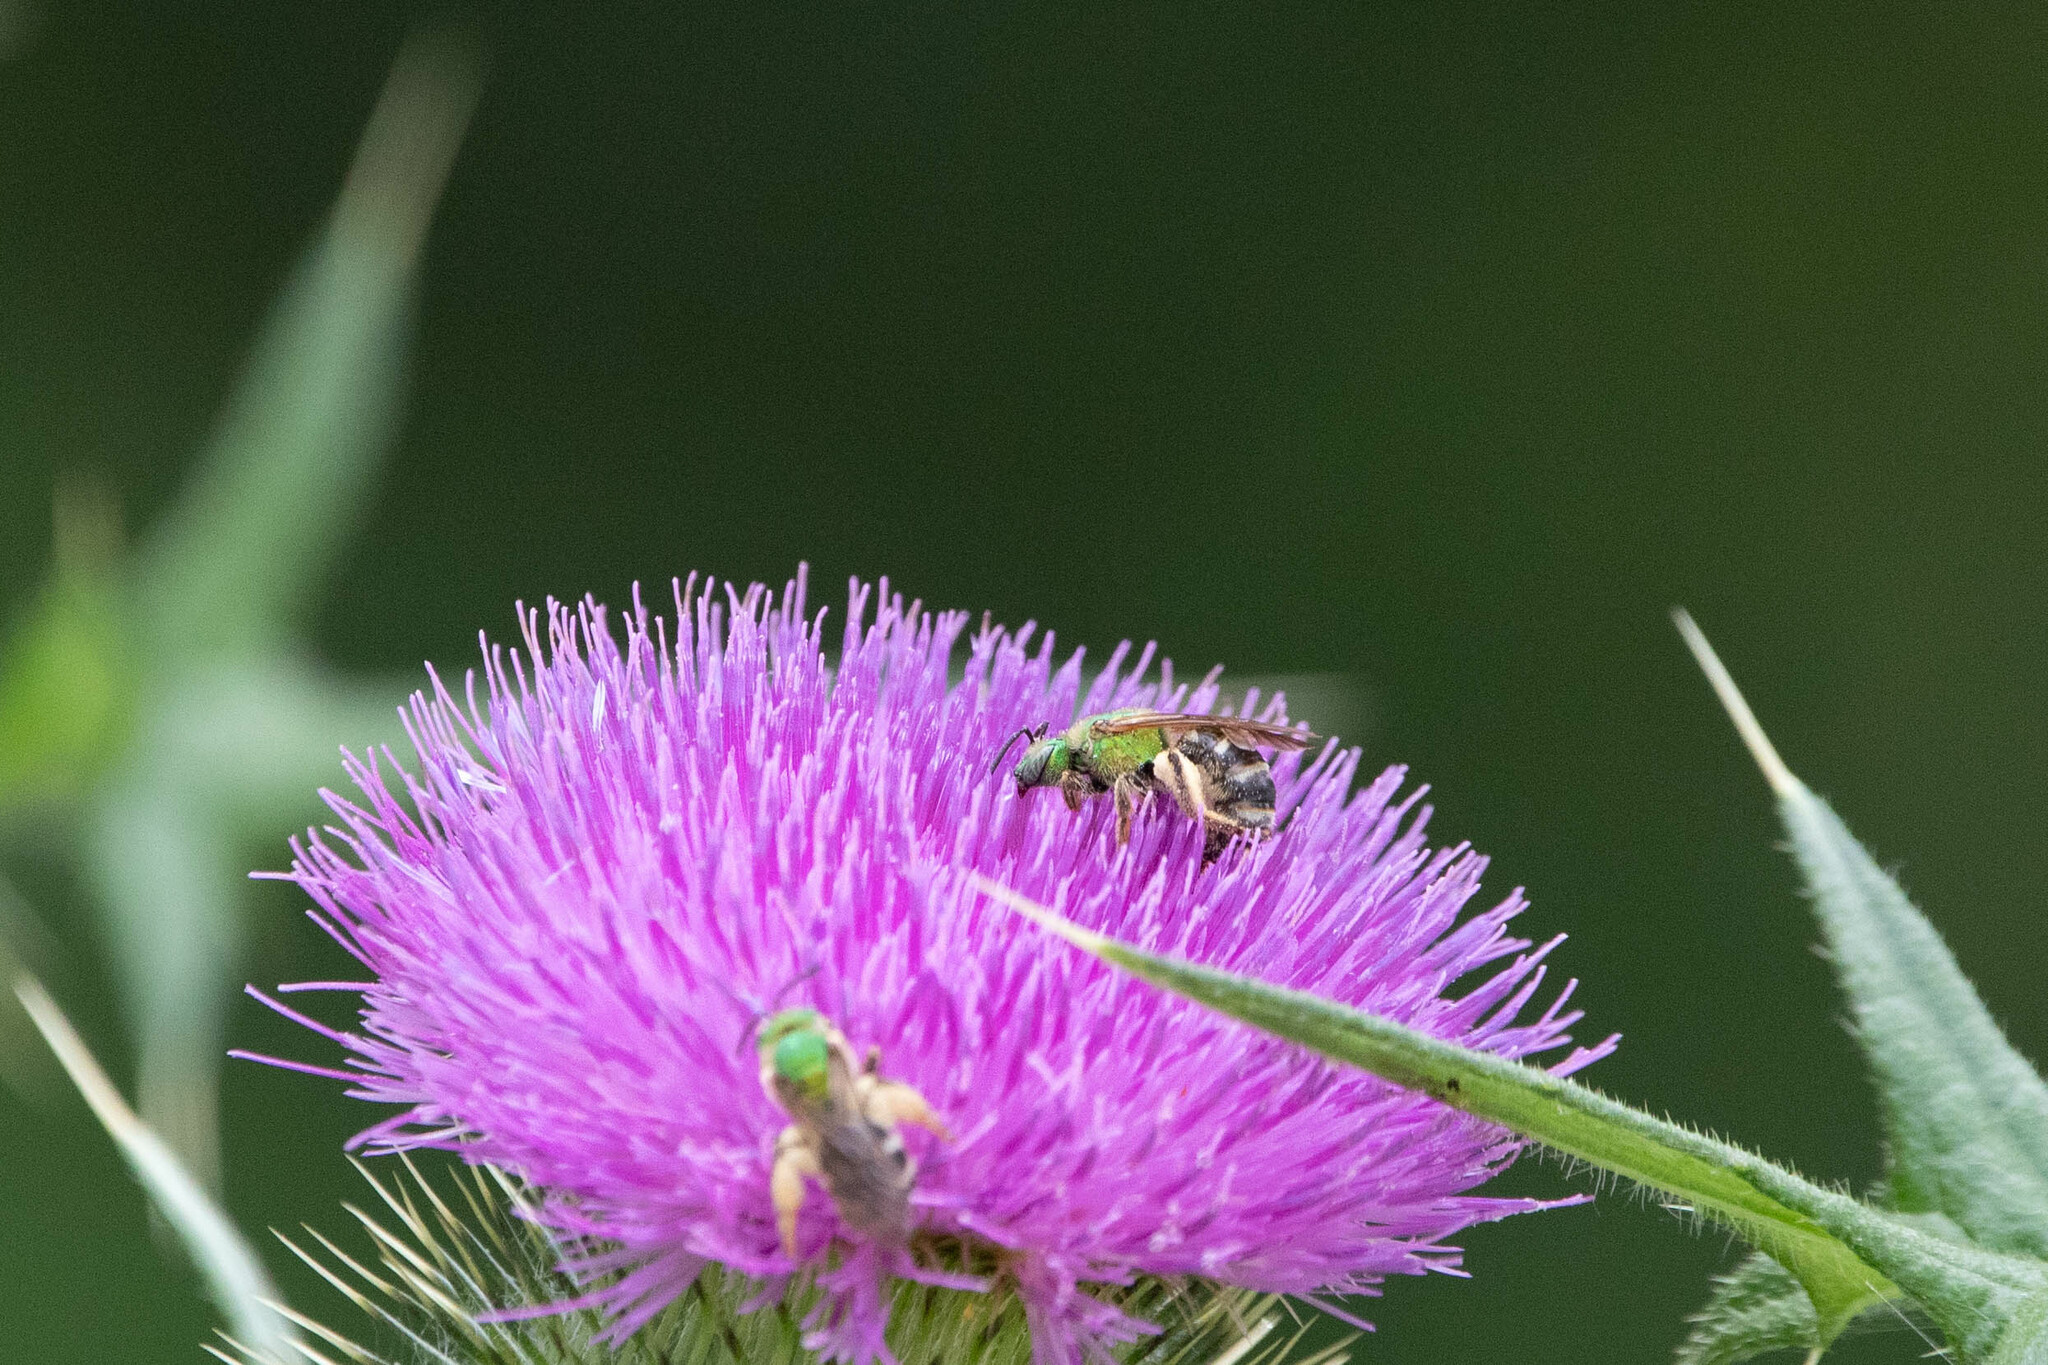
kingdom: Animalia
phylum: Arthropoda
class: Insecta
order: Hymenoptera
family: Halictidae
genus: Agapostemon
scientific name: Agapostemon virescens
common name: Bicolored striped sweat bee
